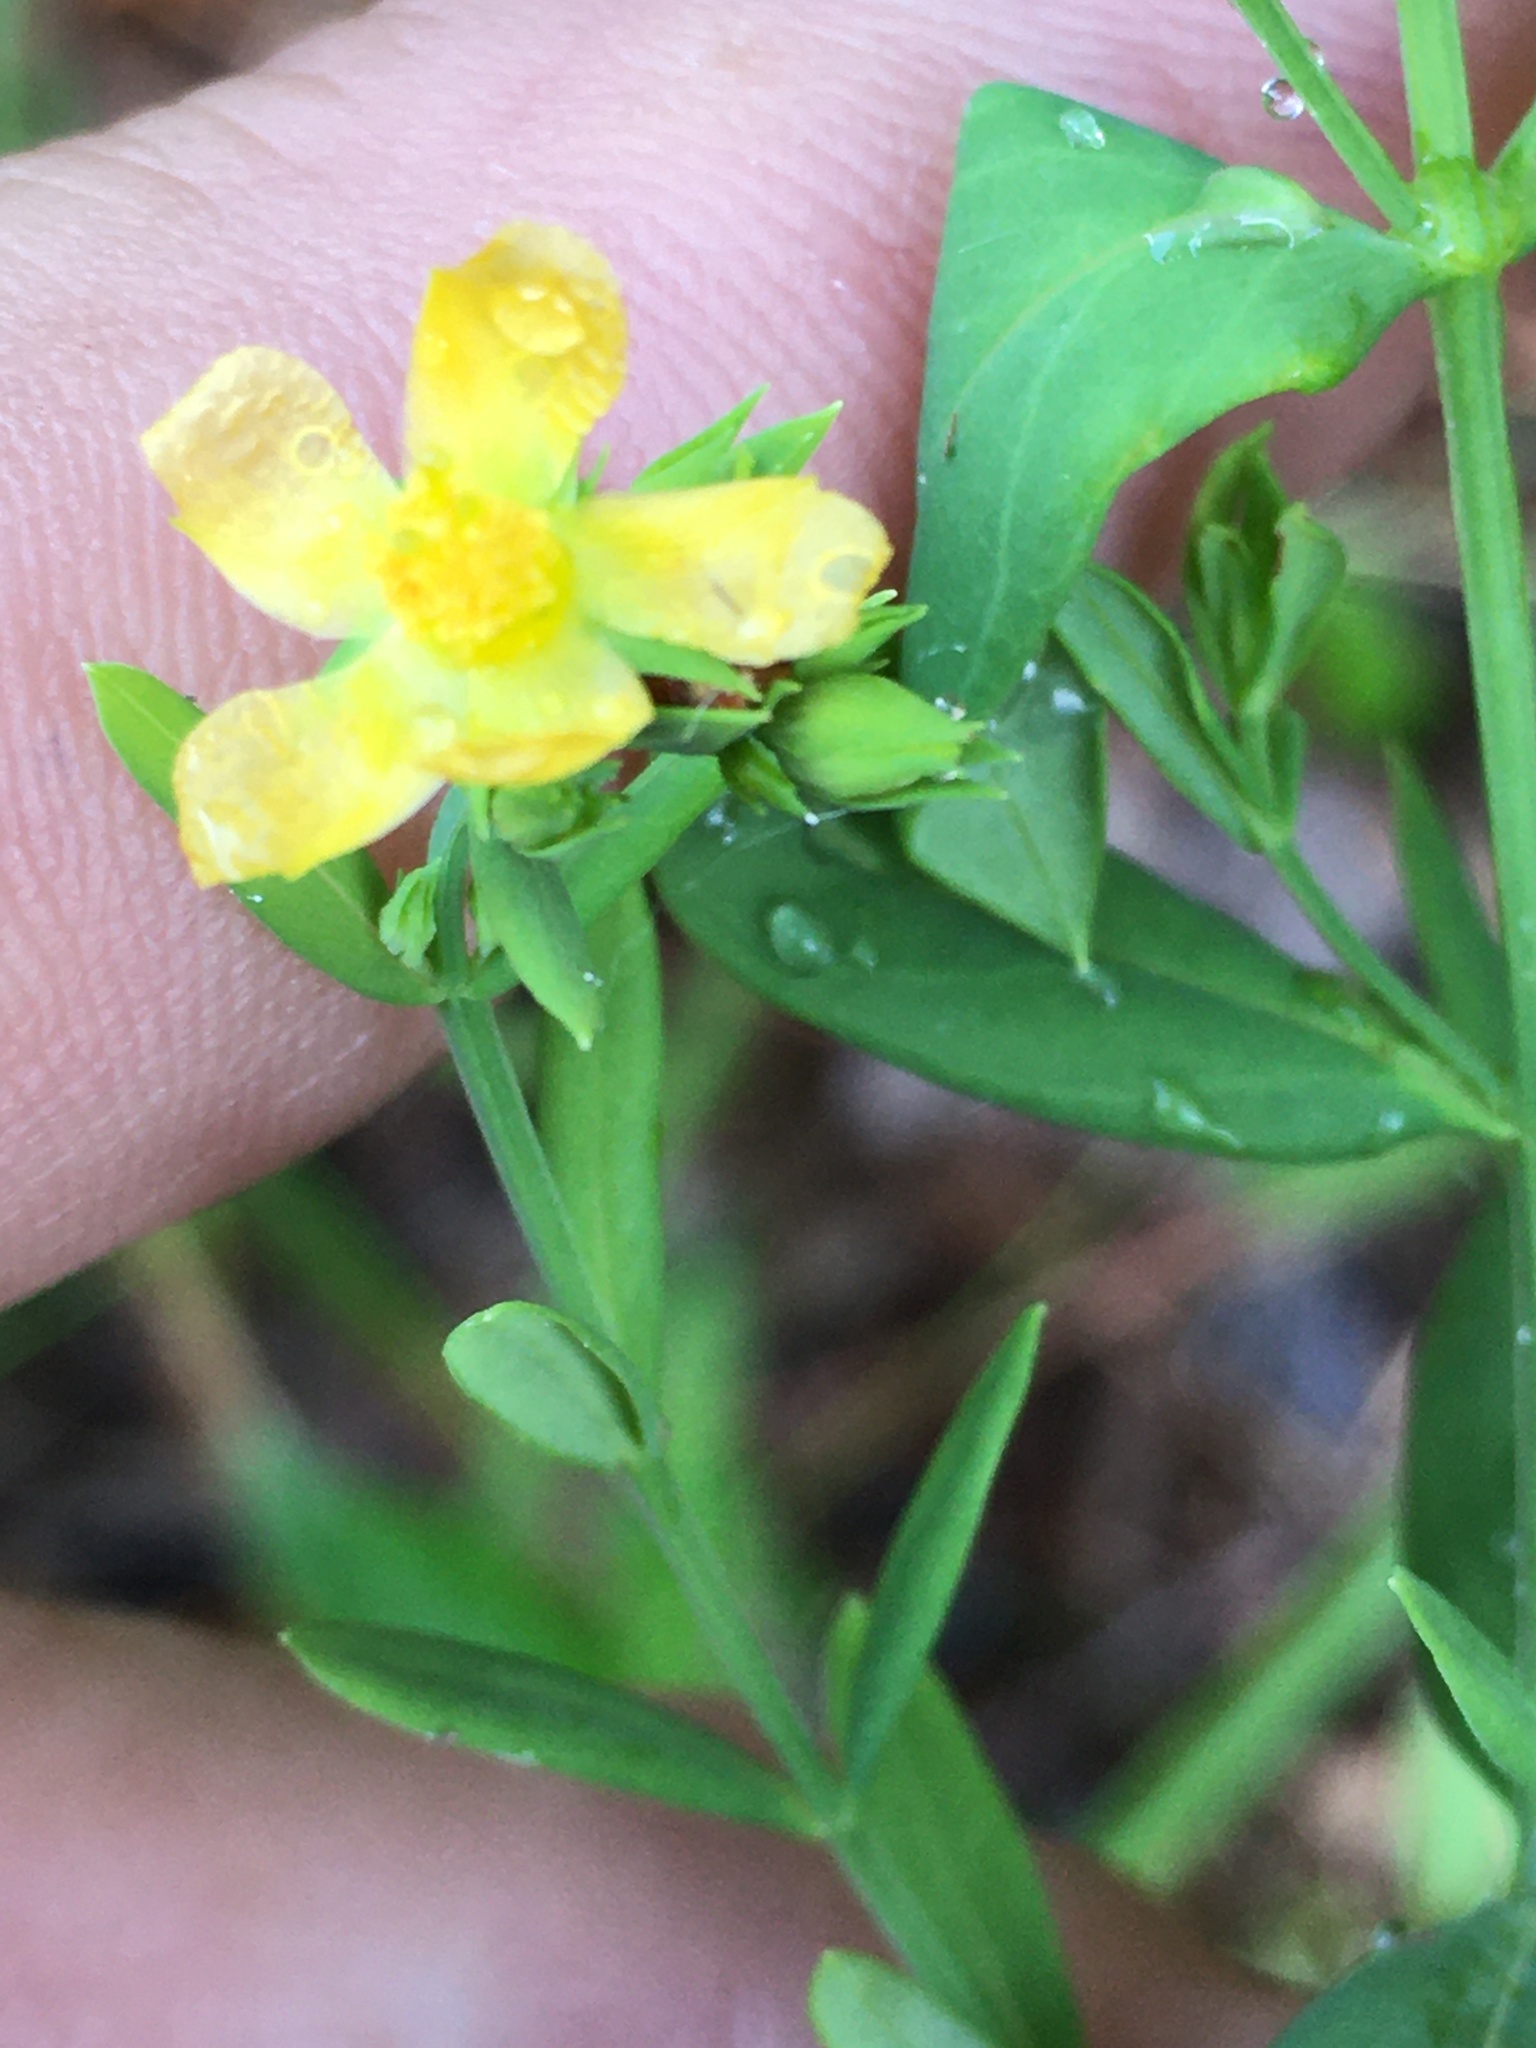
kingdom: Plantae
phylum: Tracheophyta
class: Magnoliopsida
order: Malpighiales
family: Hypericaceae
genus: Hypericum
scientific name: Hypericum mutilum
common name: Dwarf st. john's-wort
